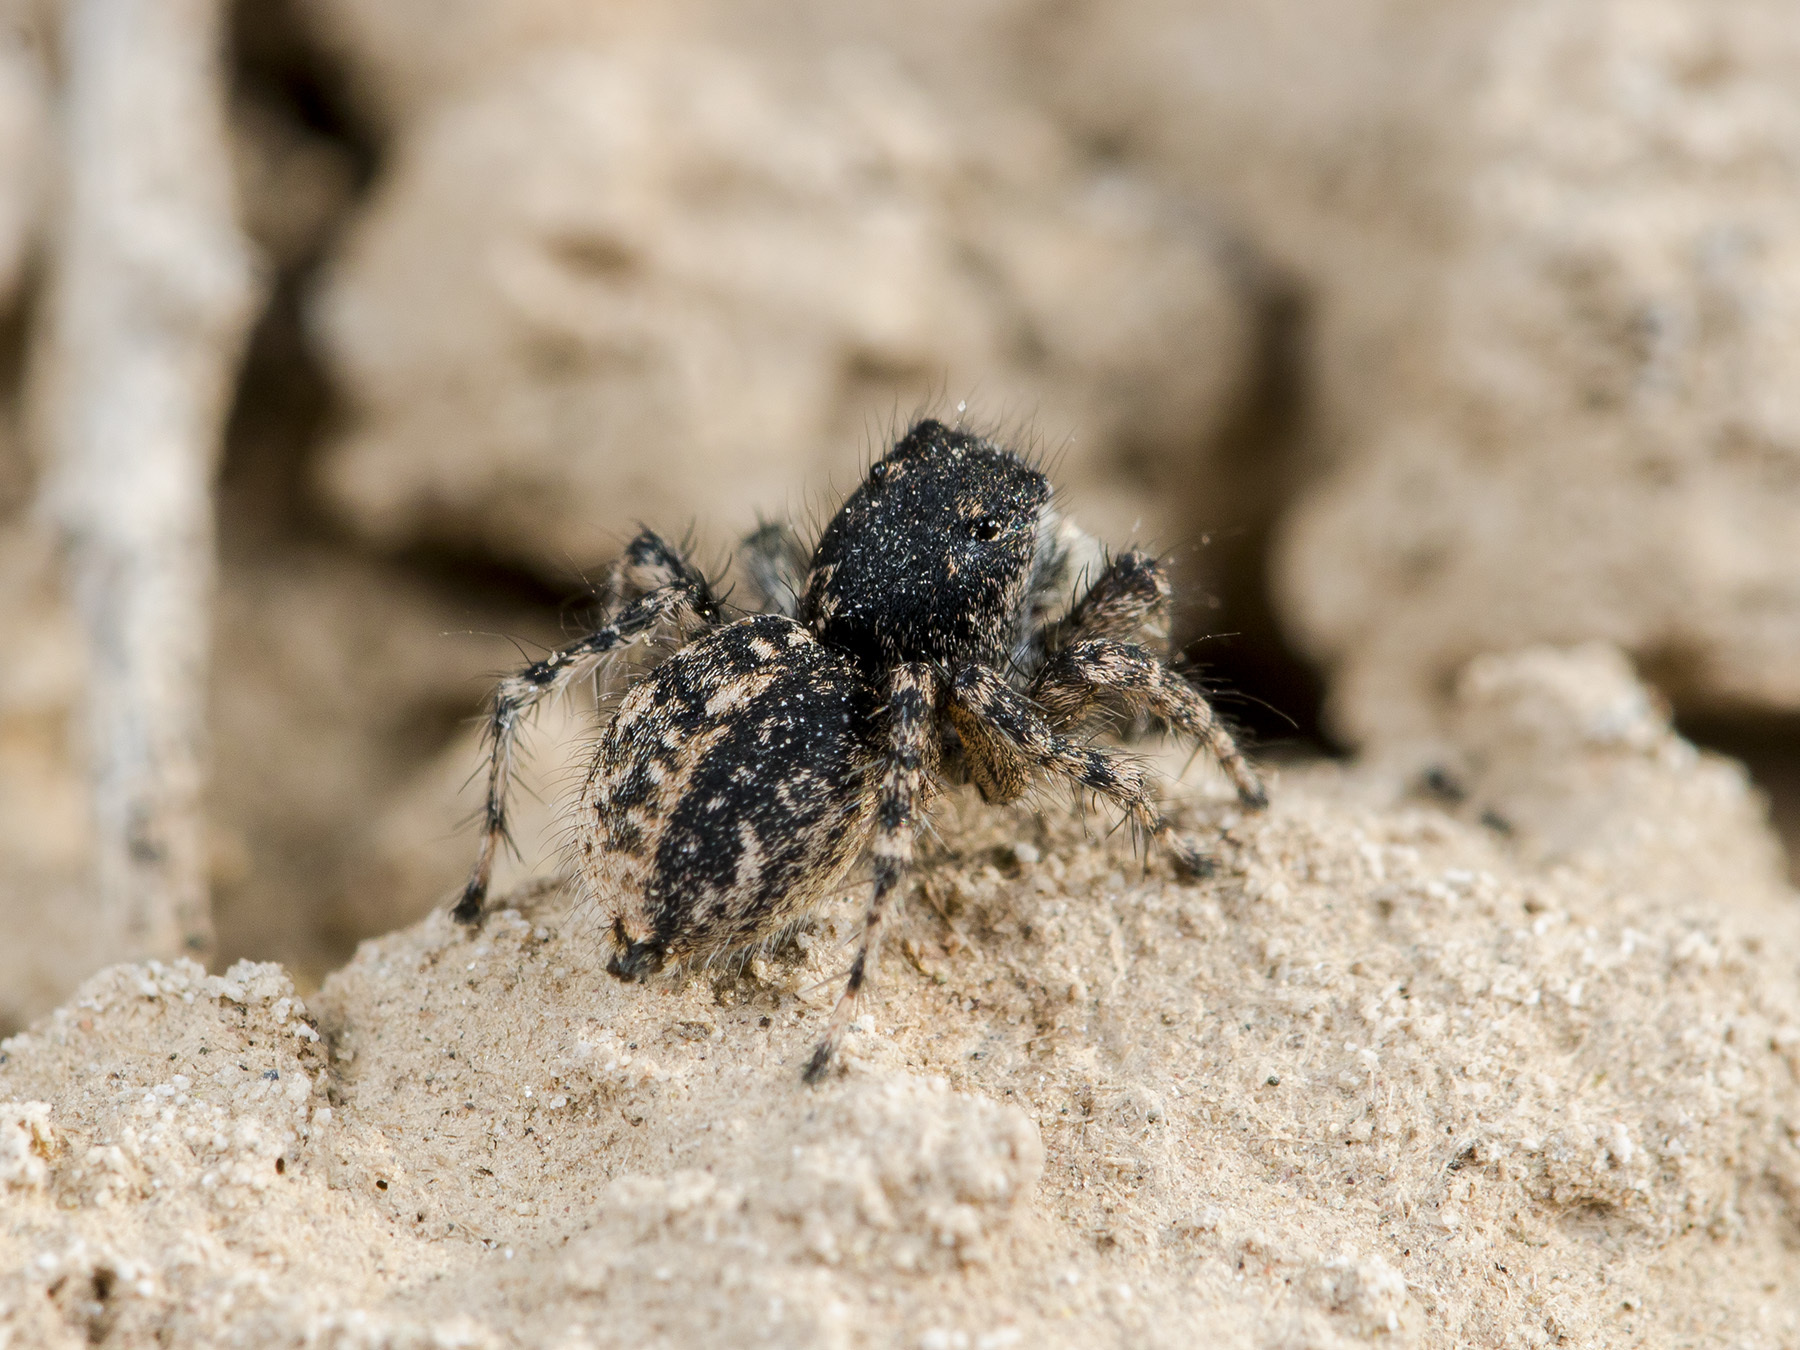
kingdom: Animalia
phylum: Arthropoda
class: Arachnida
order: Araneae
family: Salticidae
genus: Aelurillus
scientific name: Aelurillus dubatolovi
